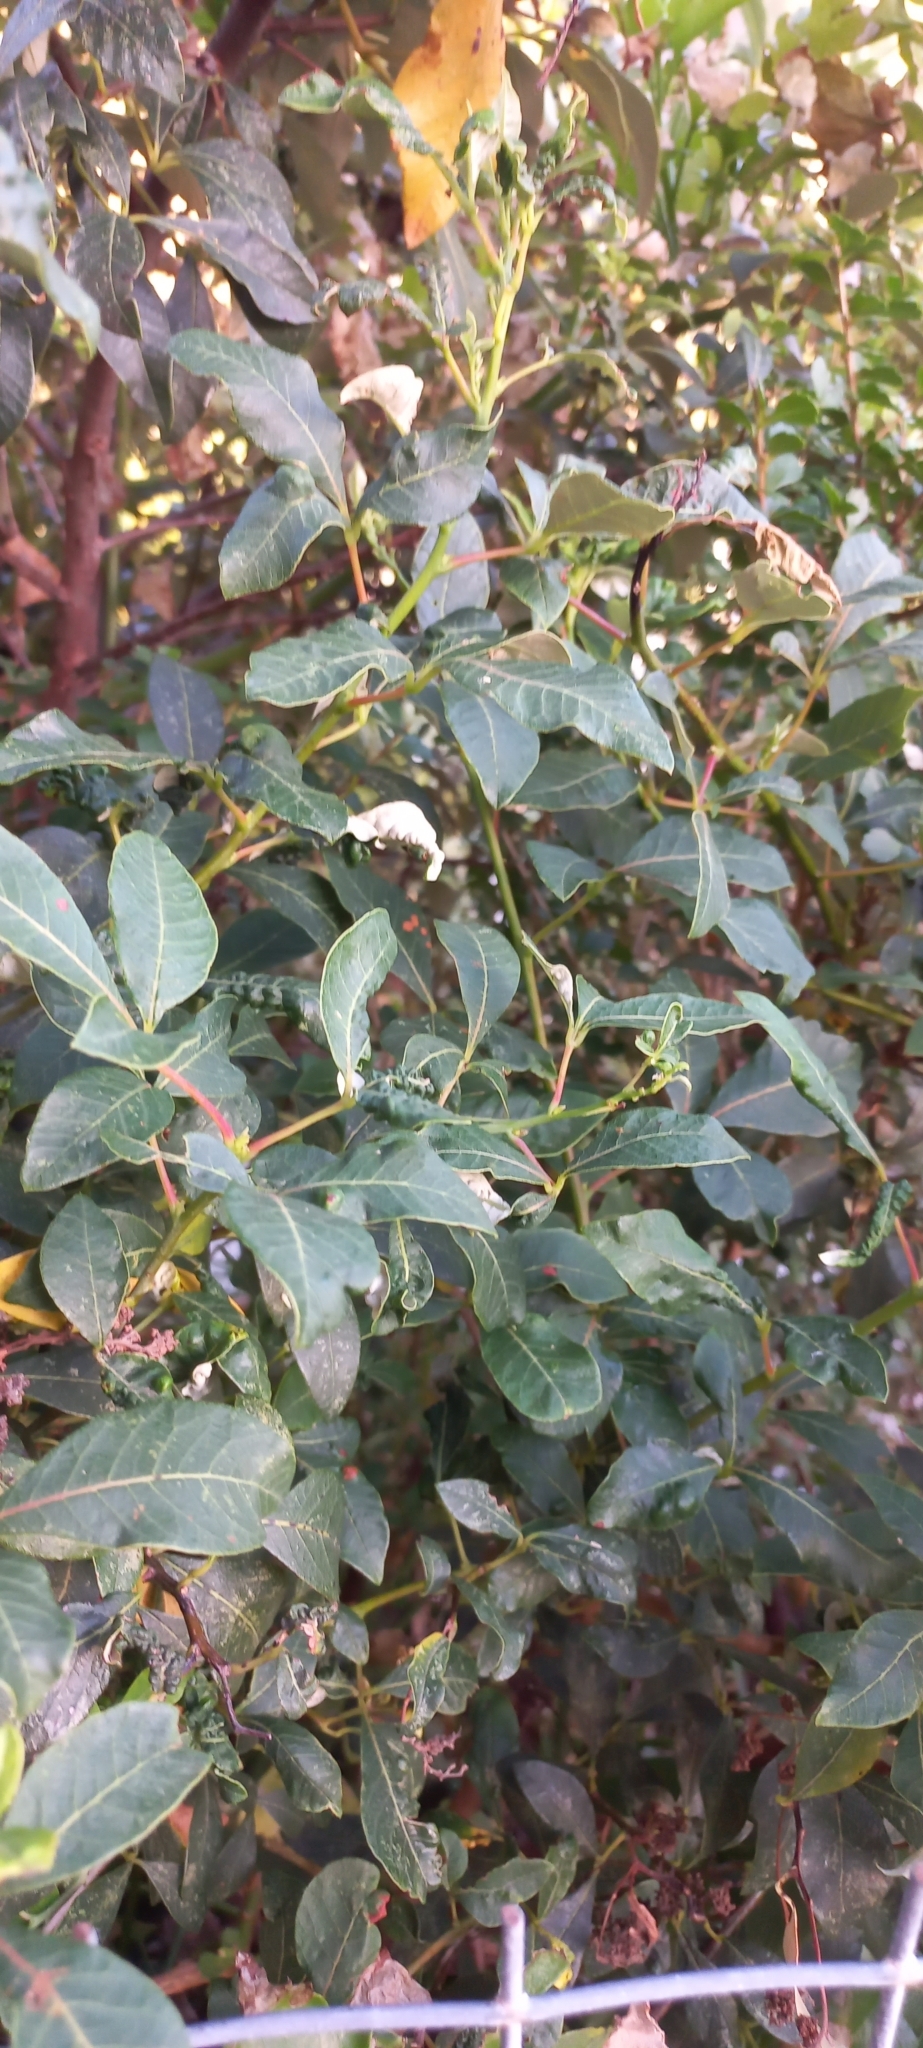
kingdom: Plantae
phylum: Tracheophyta
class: Magnoliopsida
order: Sapindales
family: Anacardiaceae
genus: Searsia
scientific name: Searsia tomentosa
